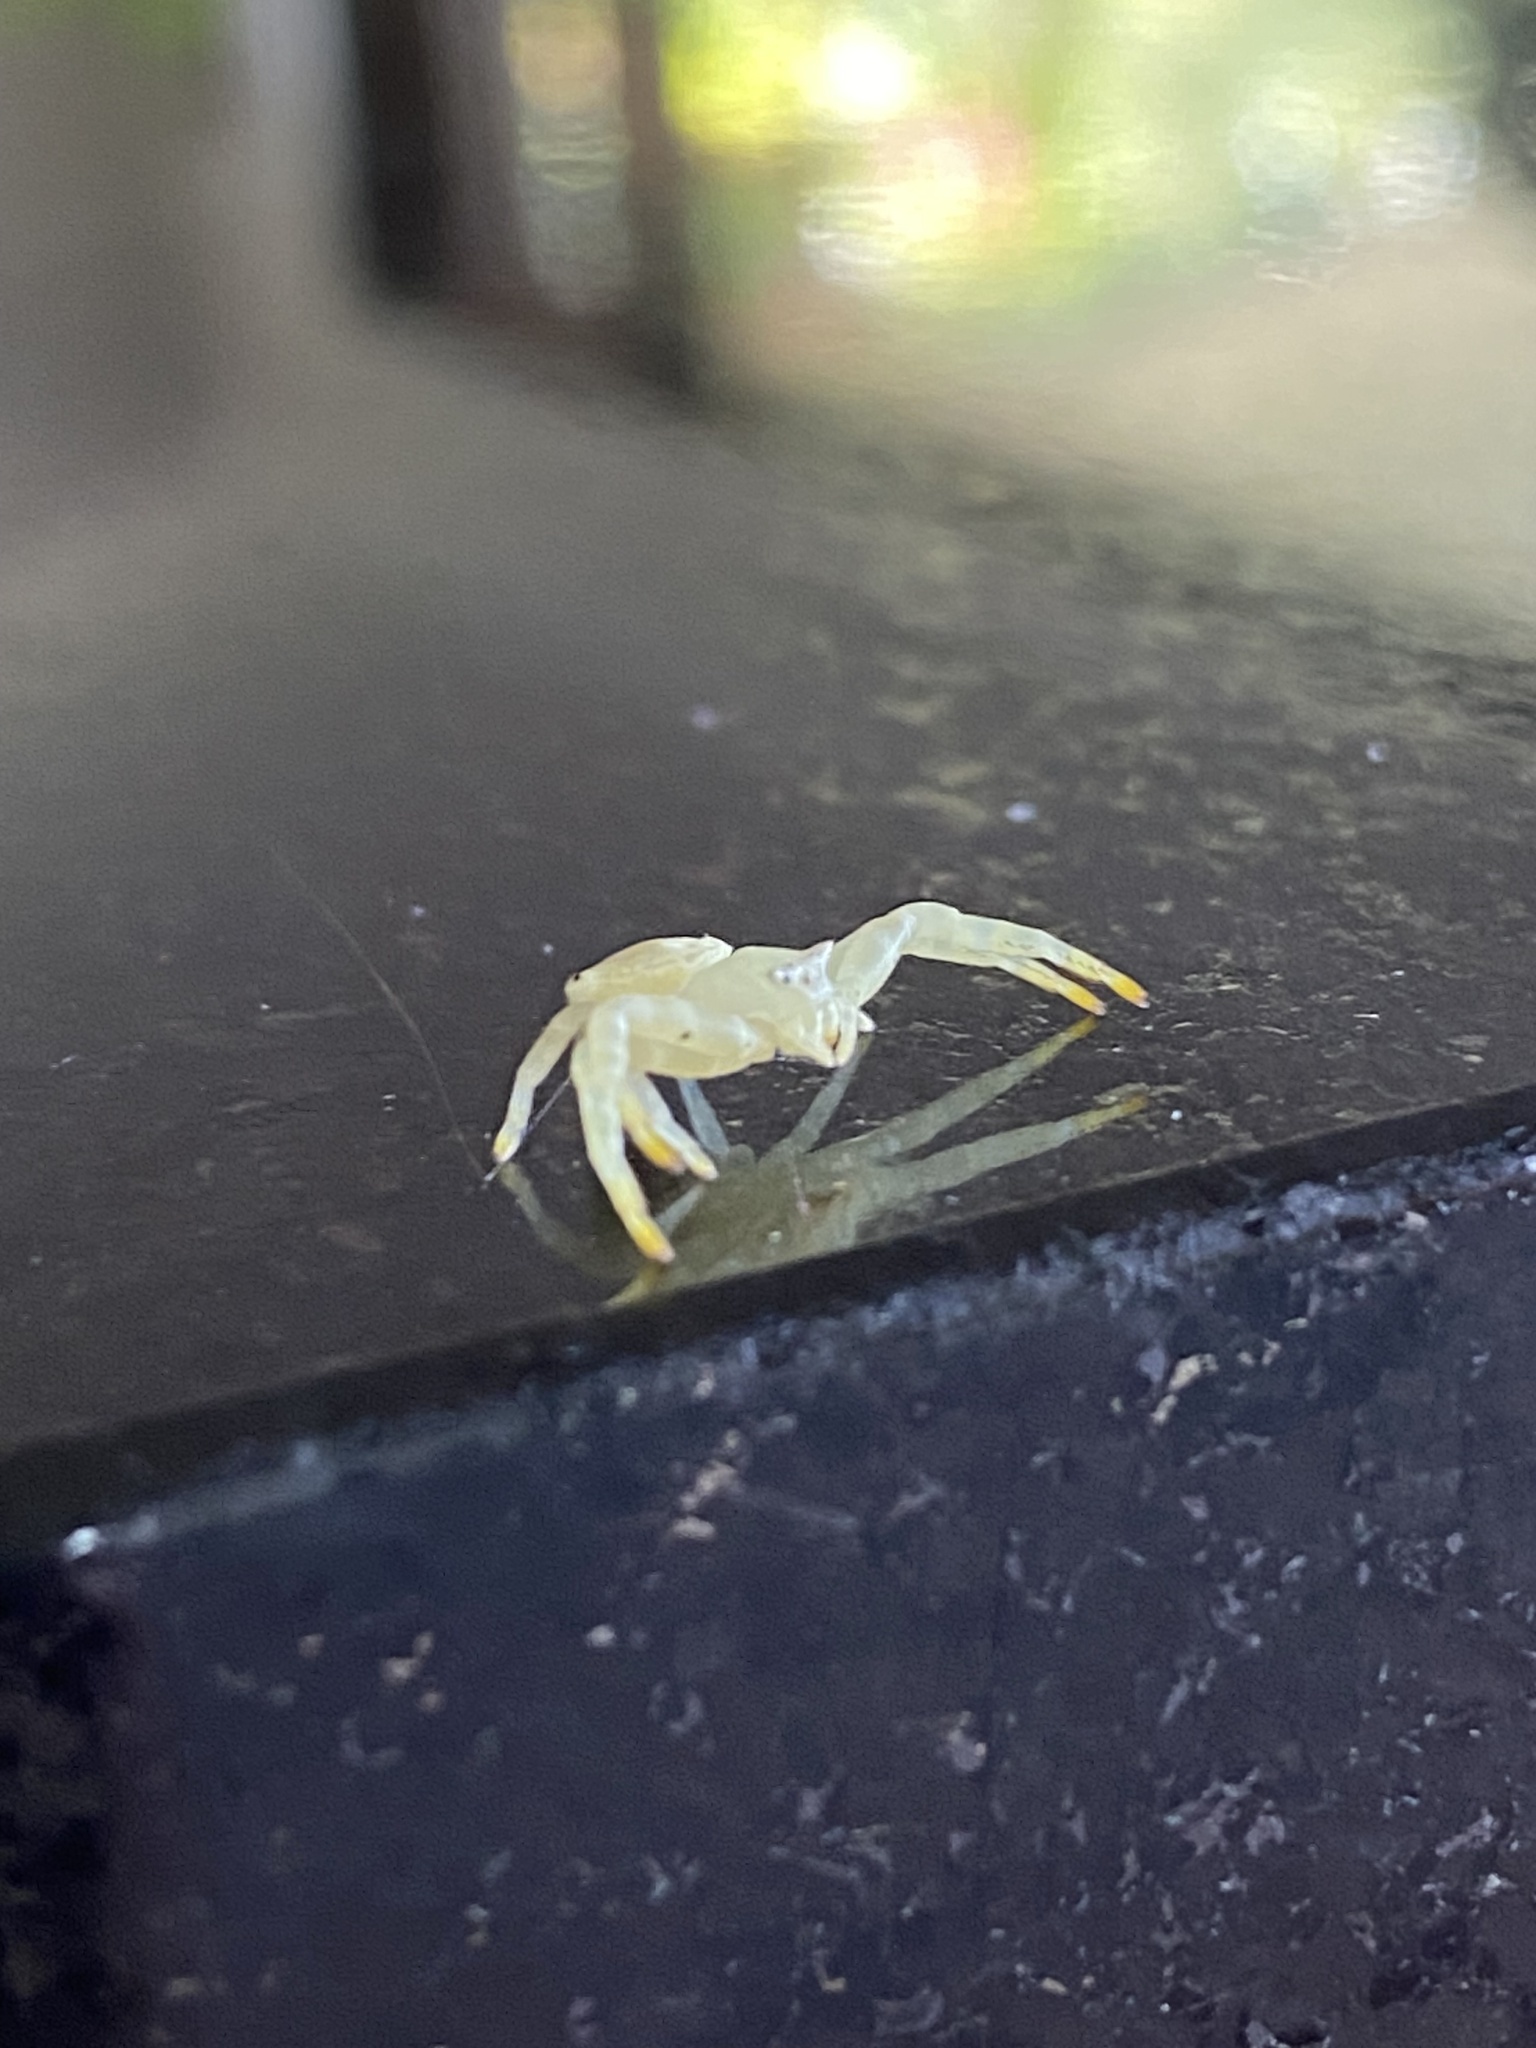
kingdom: Animalia
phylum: Arthropoda
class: Arachnida
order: Araneae
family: Thomisidae
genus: Thomisus
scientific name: Thomisus spectabilis
